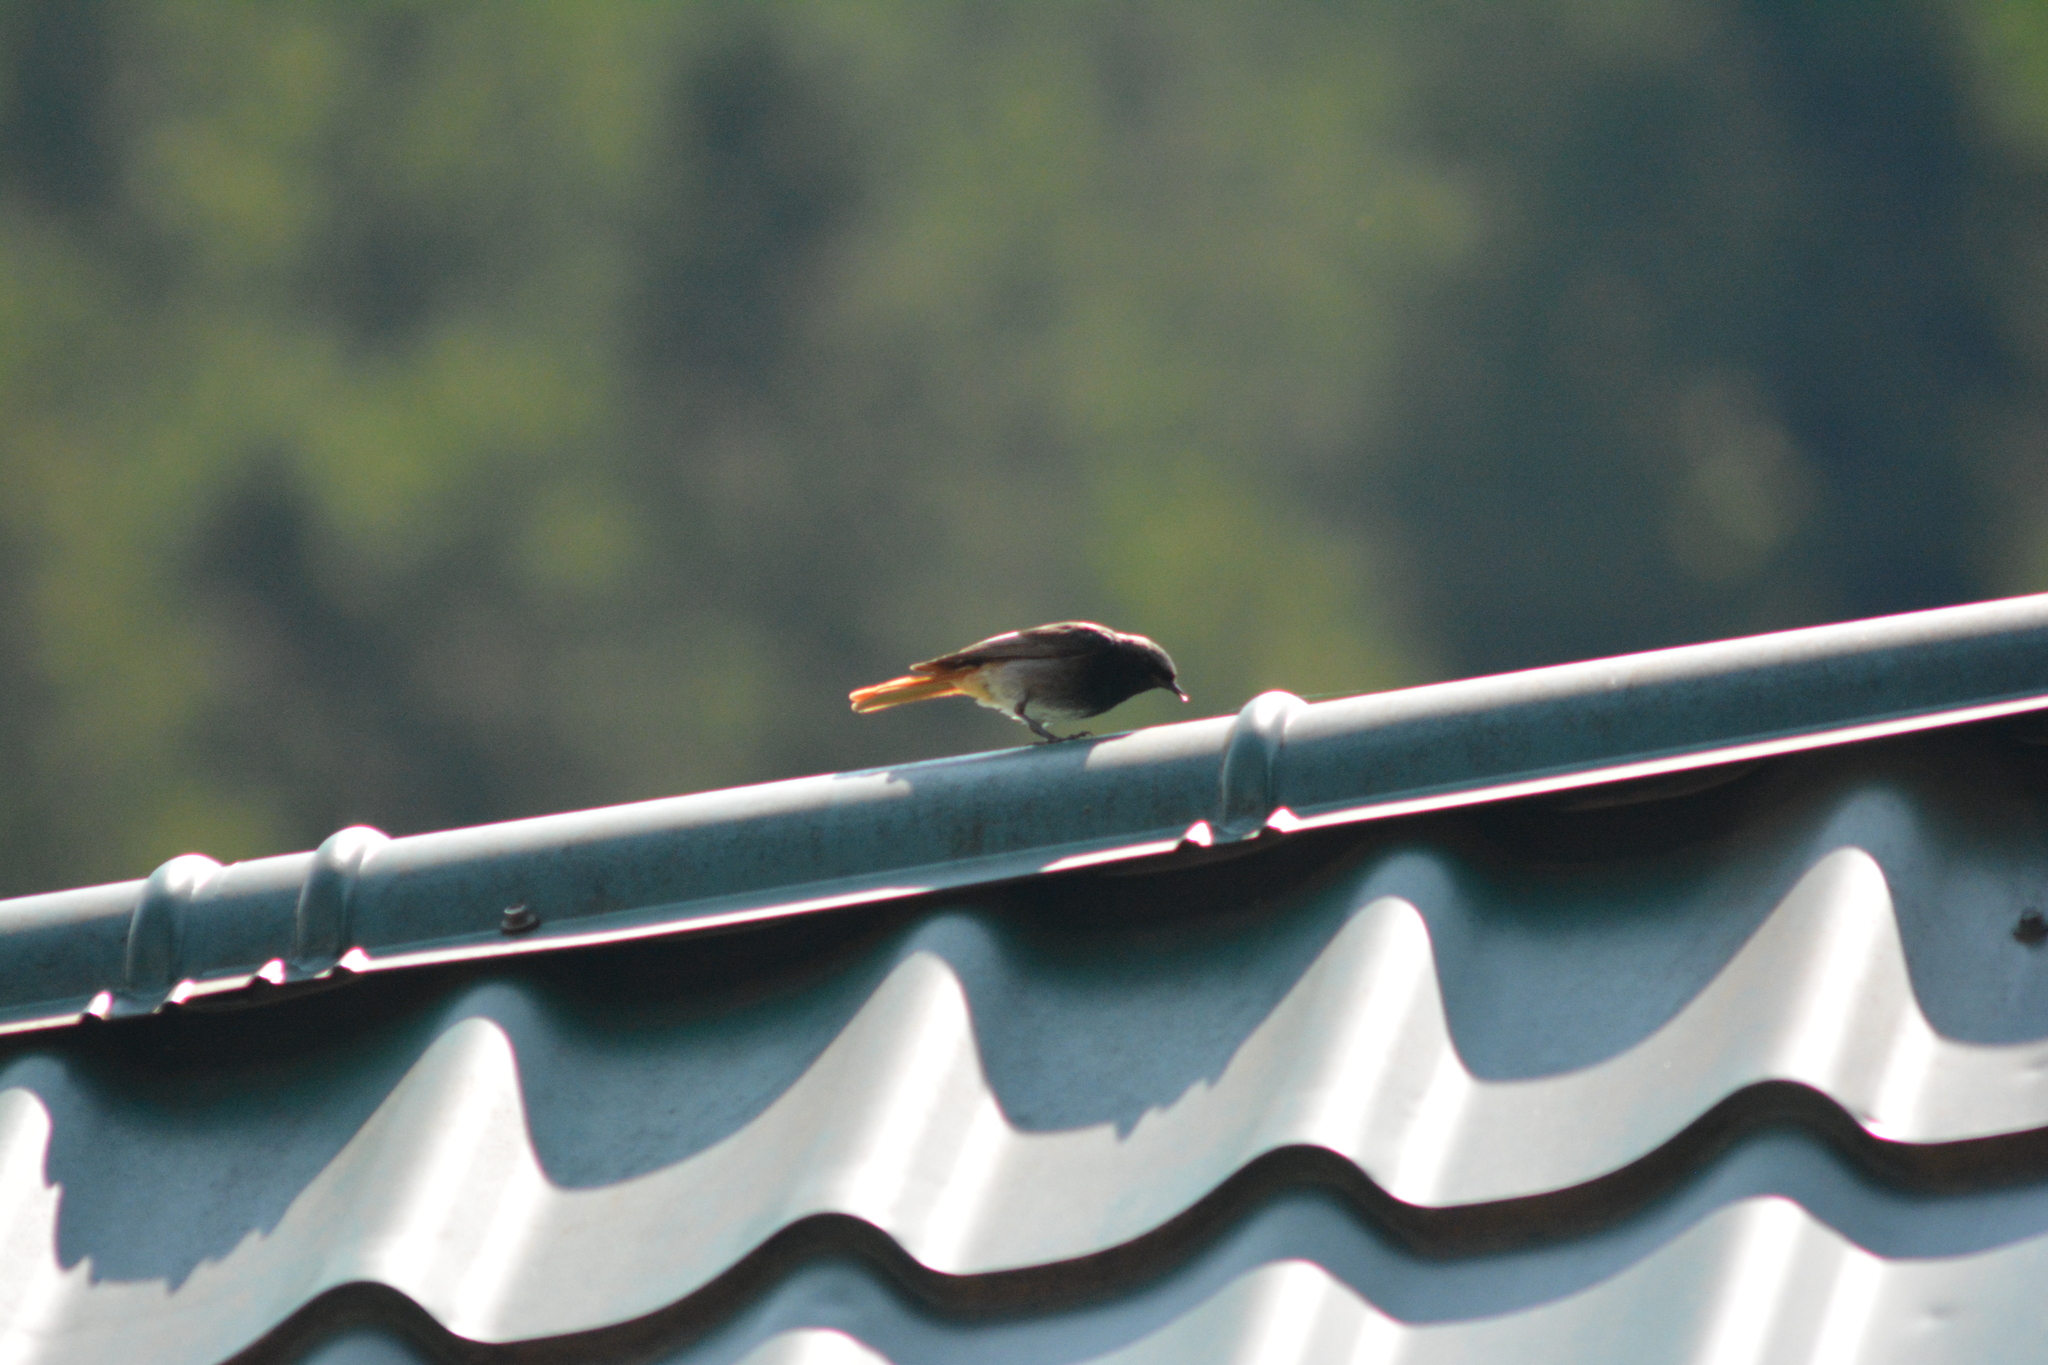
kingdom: Animalia
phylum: Chordata
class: Aves
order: Passeriformes
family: Muscicapidae
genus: Phoenicurus
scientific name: Phoenicurus ochruros
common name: Black redstart
